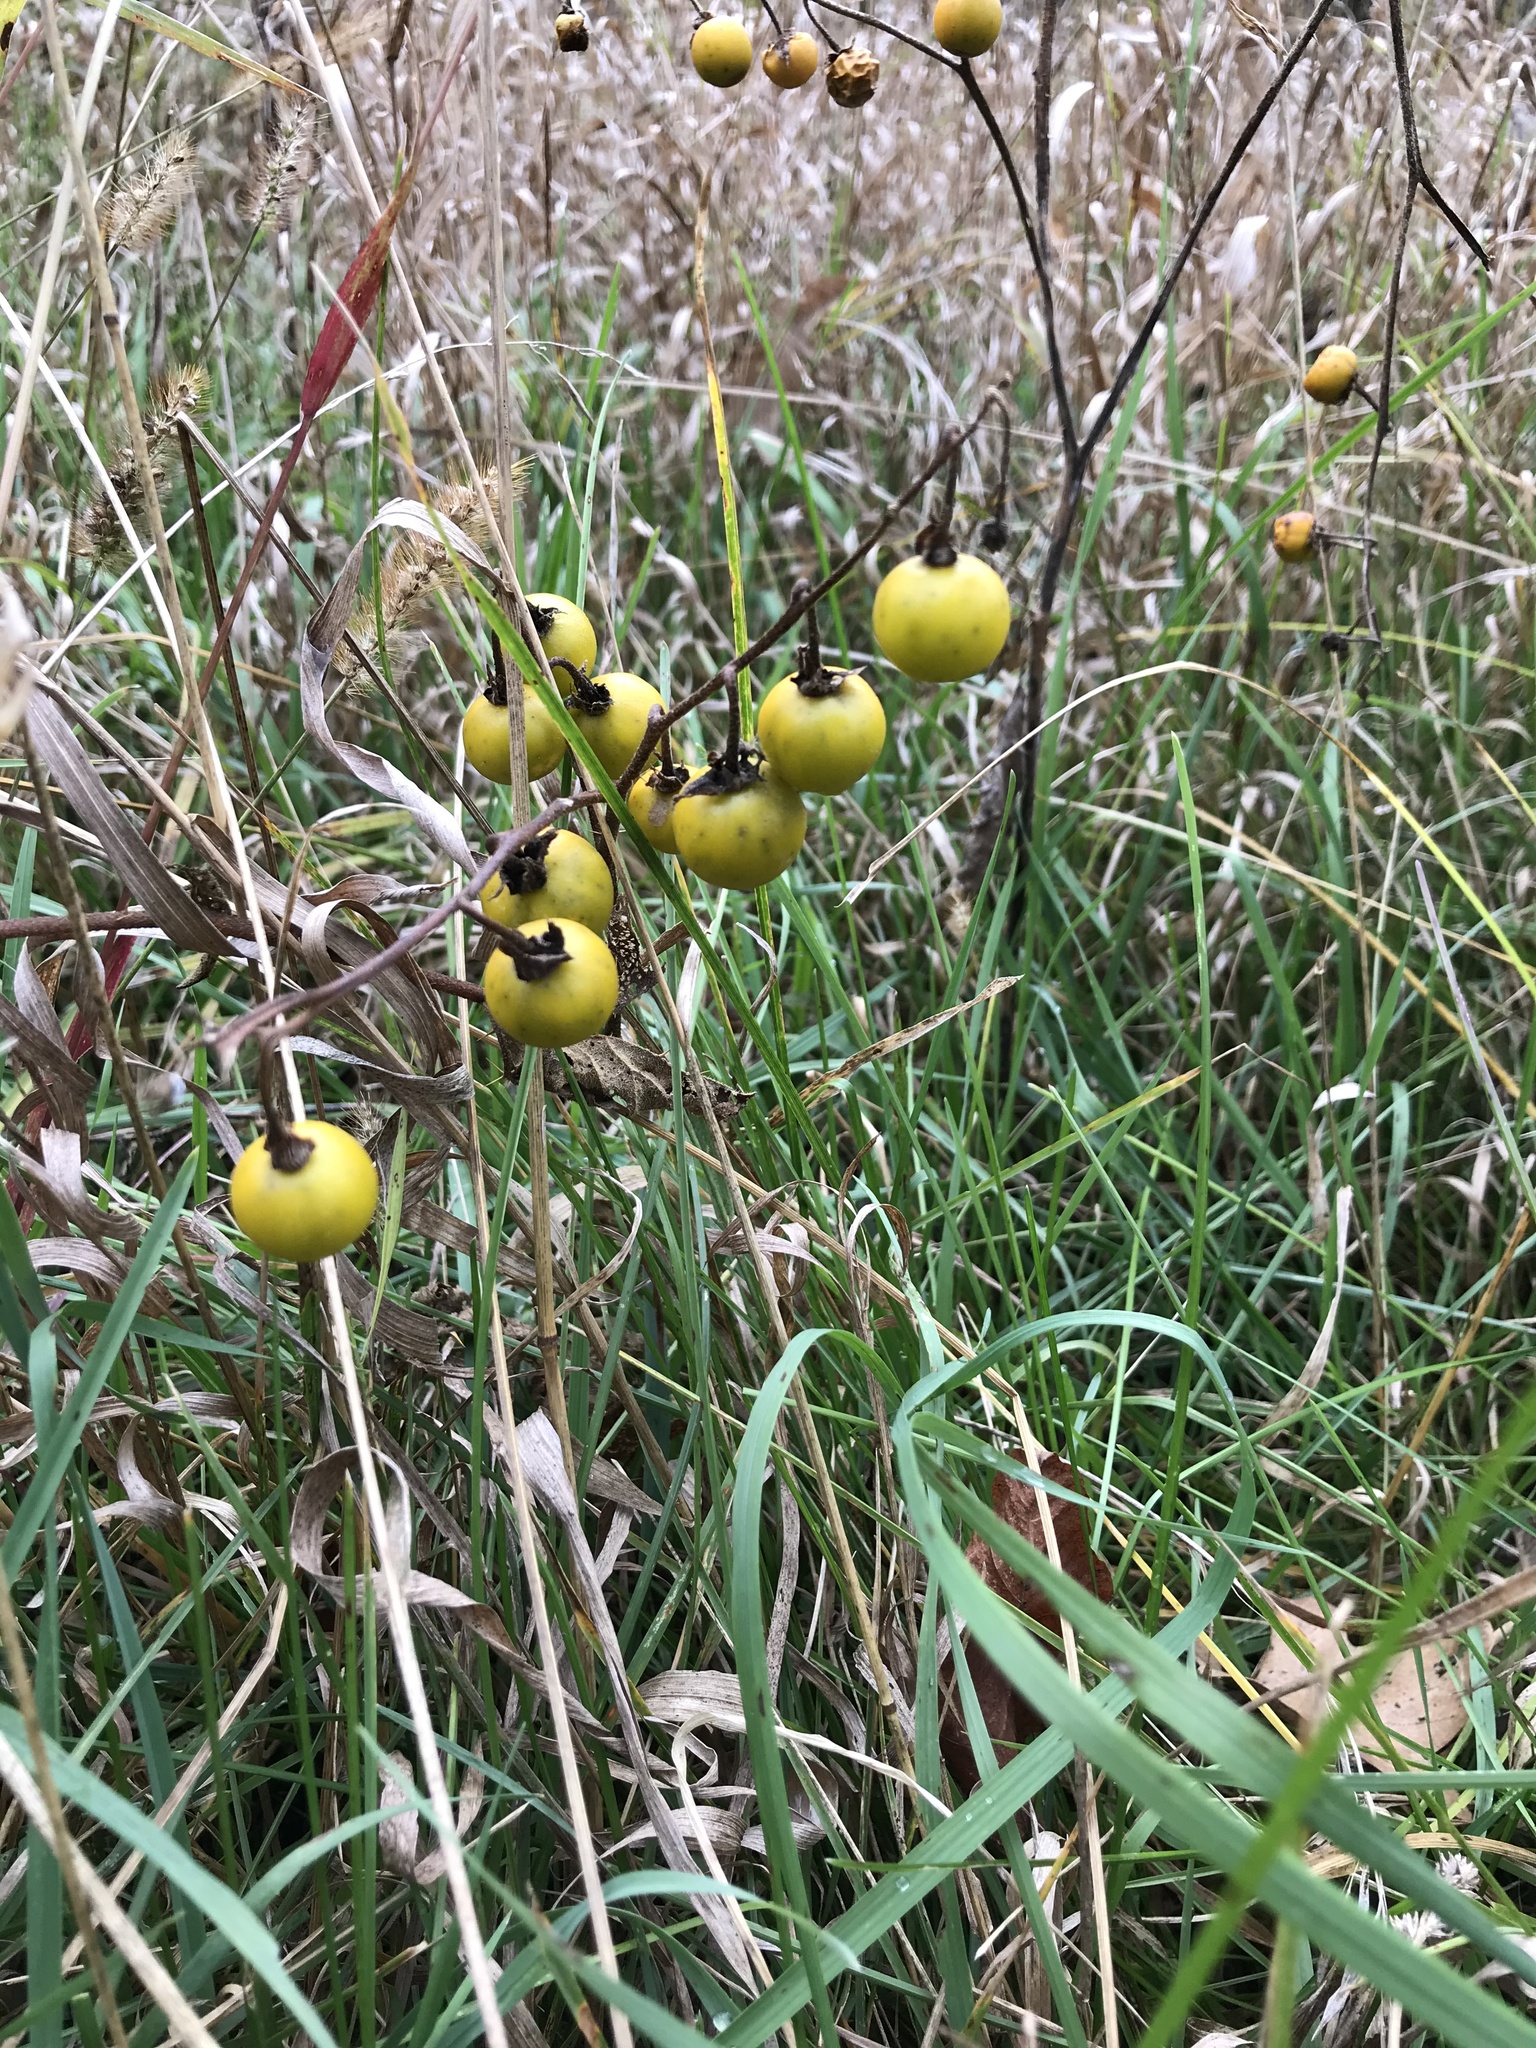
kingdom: Plantae
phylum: Tracheophyta
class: Magnoliopsida
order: Solanales
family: Solanaceae
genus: Solanum
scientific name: Solanum carolinense
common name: Horse-nettle
